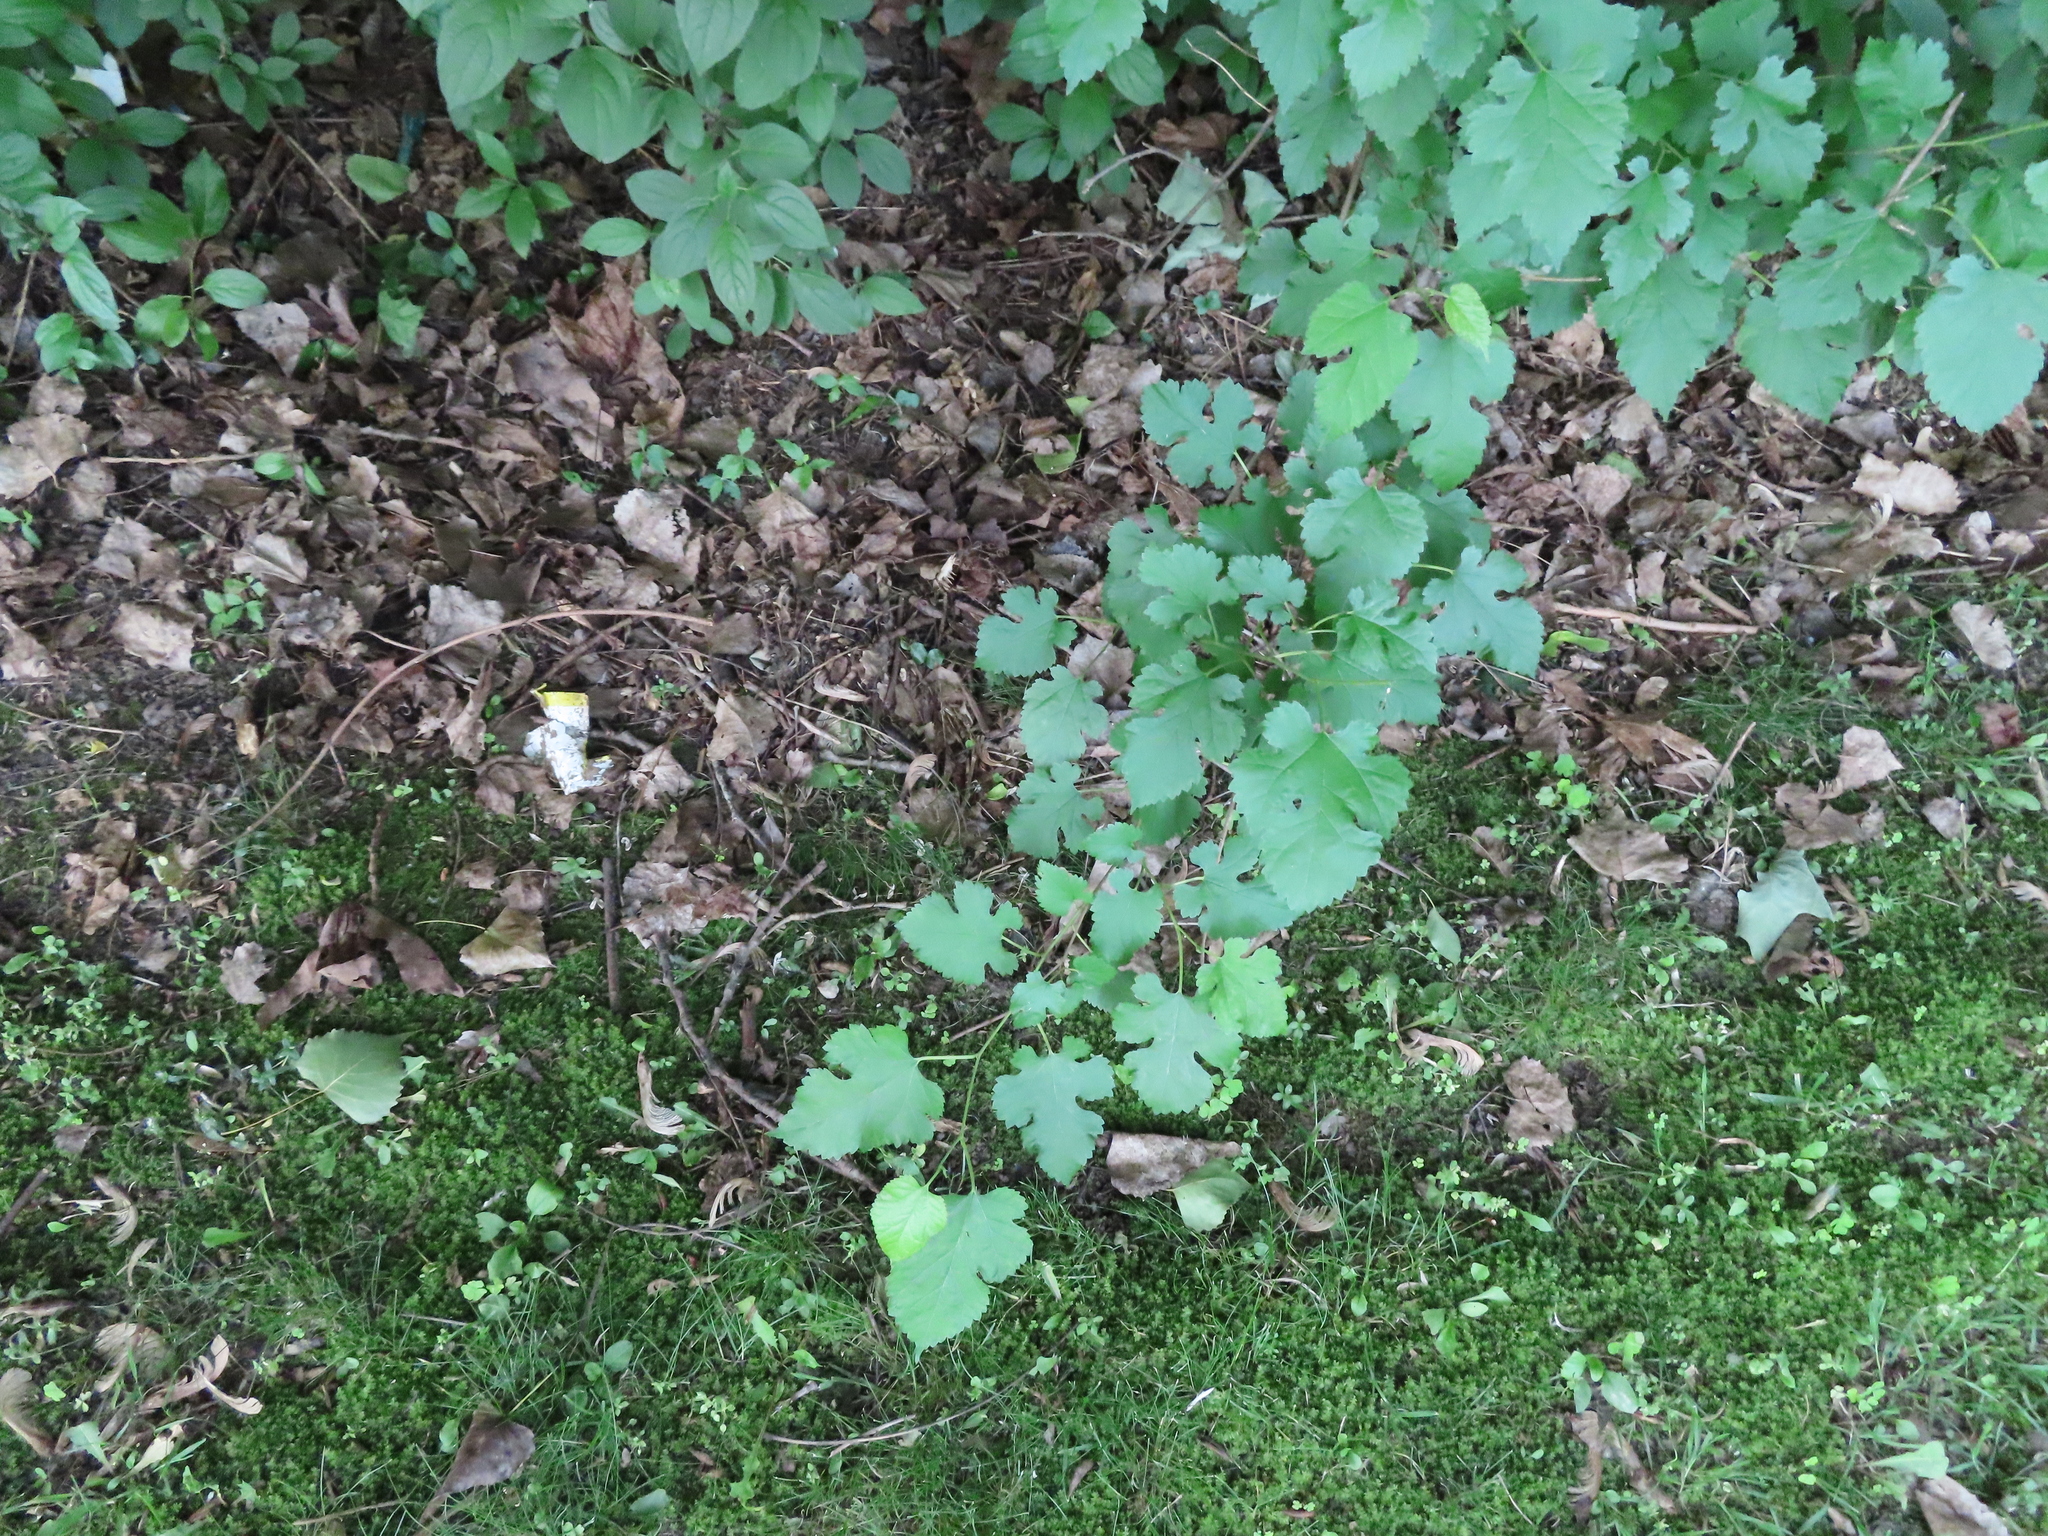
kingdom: Plantae
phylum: Tracheophyta
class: Magnoliopsida
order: Rosales
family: Moraceae
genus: Morus
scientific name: Morus alba
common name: White mulberry
